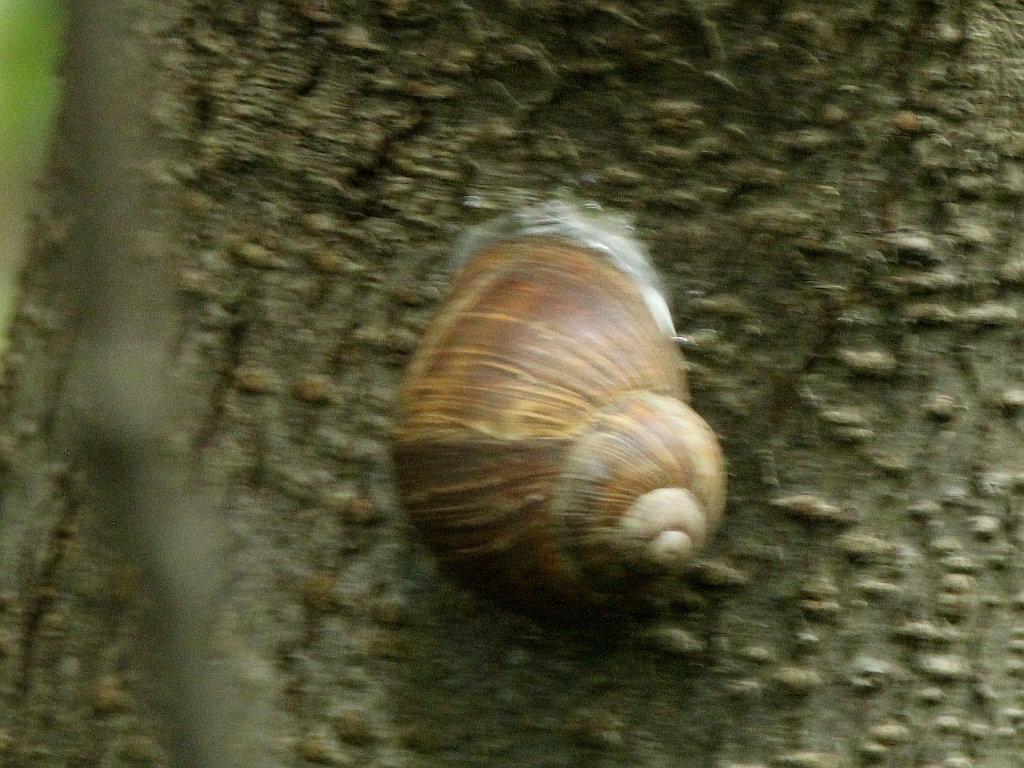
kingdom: Animalia
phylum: Mollusca
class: Gastropoda
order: Stylommatophora
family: Helicidae
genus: Helix
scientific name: Helix pomatia
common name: Roman snail
